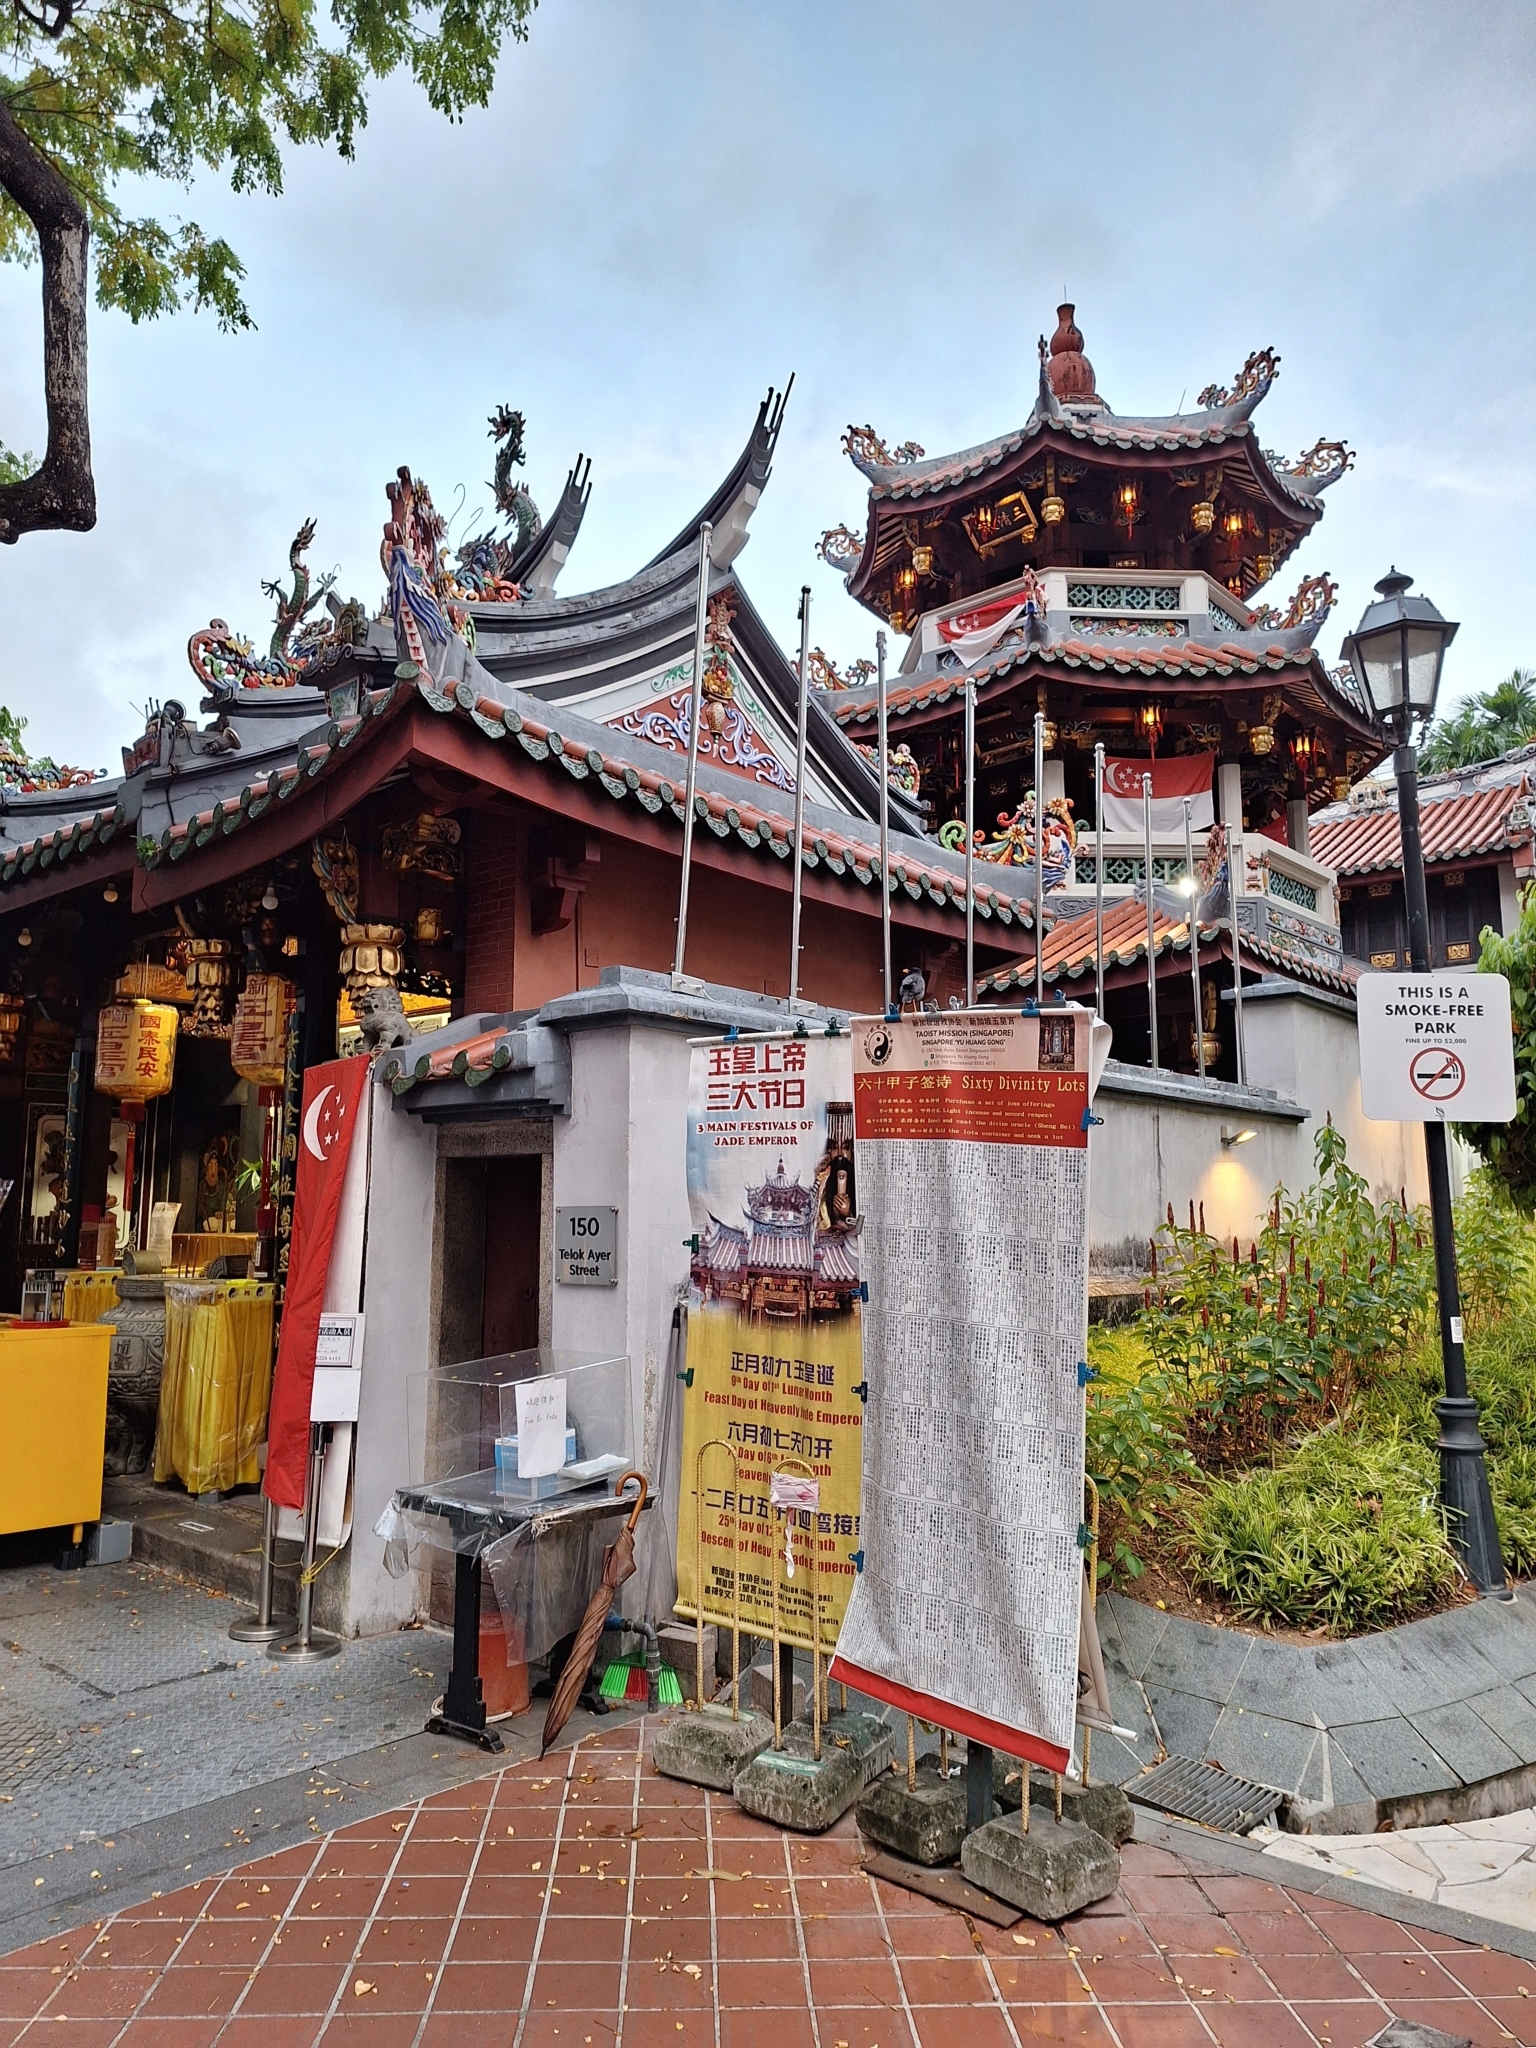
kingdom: Animalia
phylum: Chordata
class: Aves
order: Passeriformes
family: Sturnidae
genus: Acridotheres
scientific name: Acridotheres javanicus
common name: Javan myna
